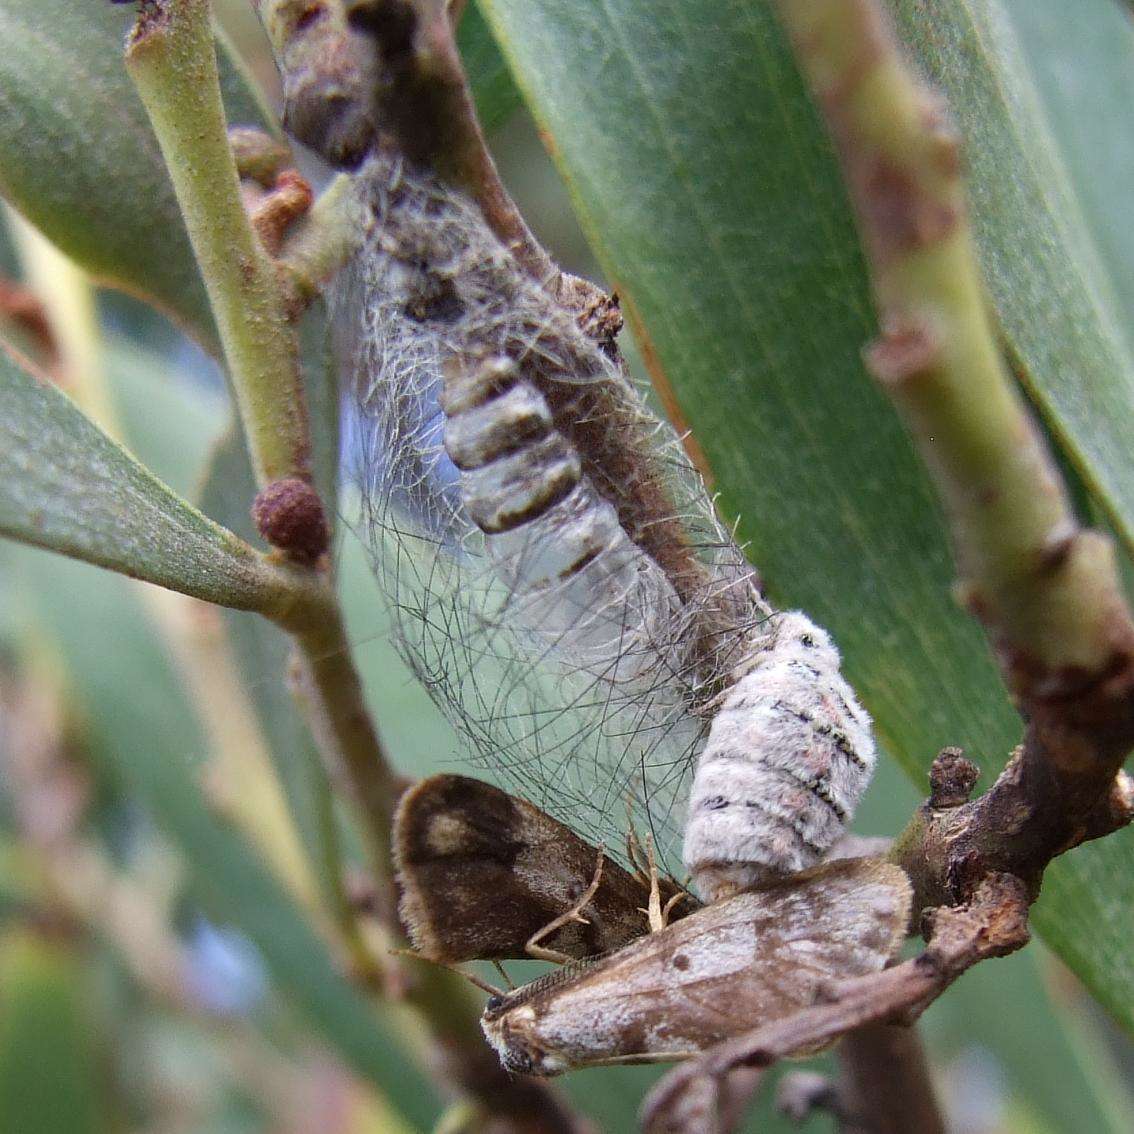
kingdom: Animalia
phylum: Arthropoda
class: Insecta
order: Lepidoptera
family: Erebidae
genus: Anestia
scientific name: Anestia
